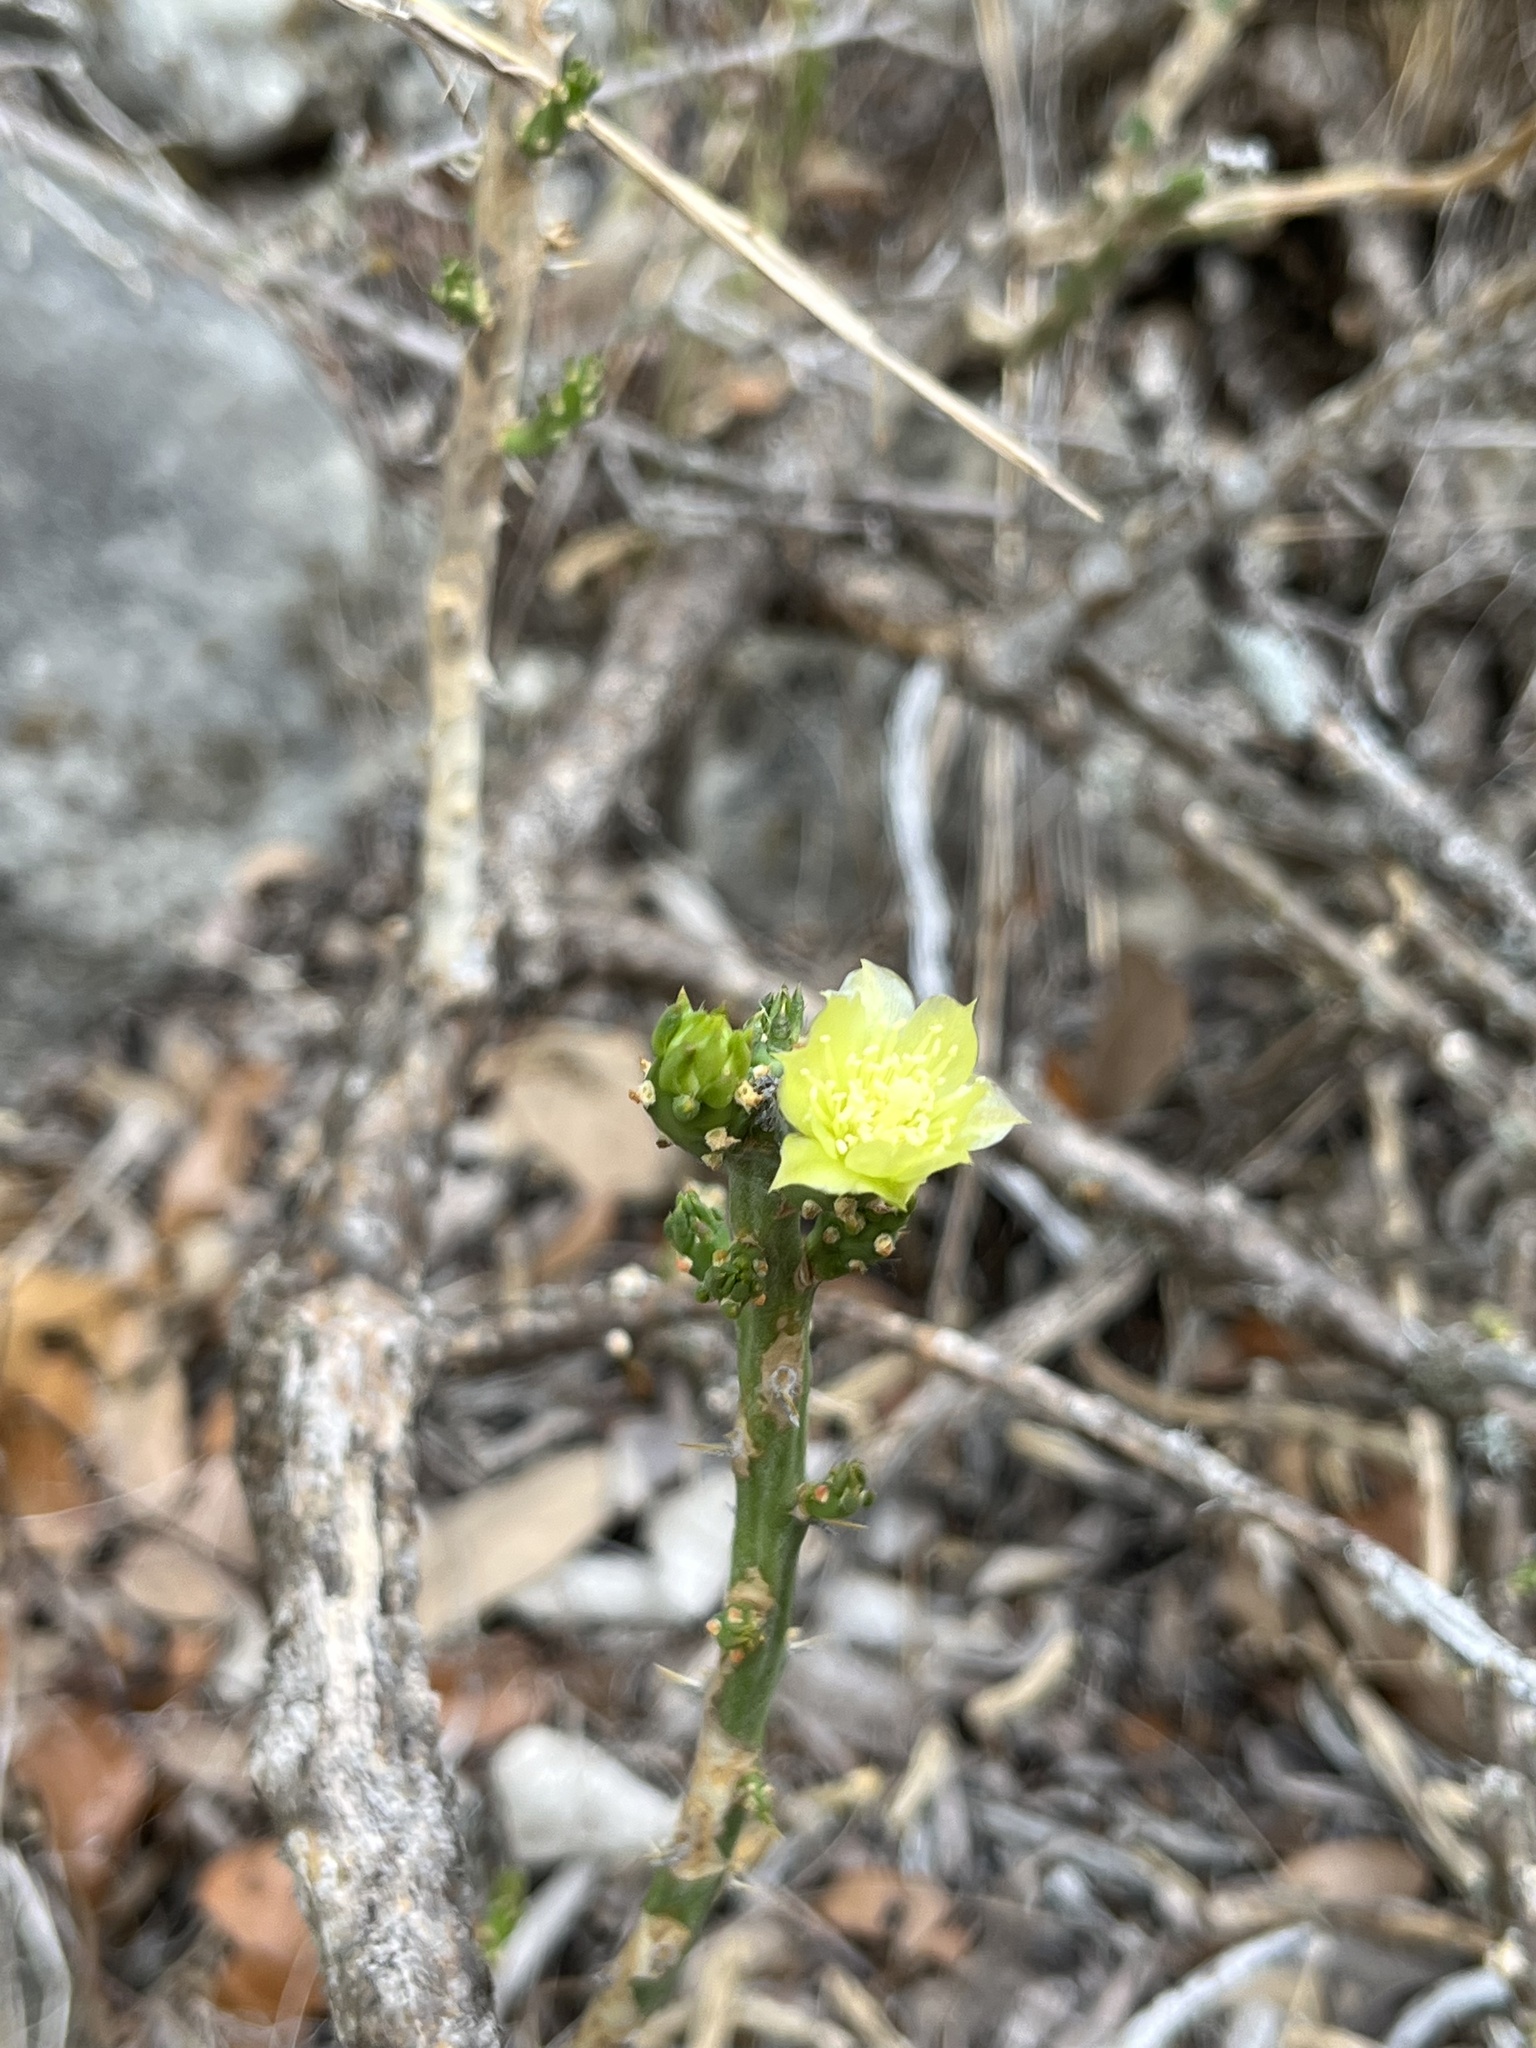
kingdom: Plantae
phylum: Tracheophyta
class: Magnoliopsida
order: Caryophyllales
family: Cactaceae
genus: Cylindropuntia
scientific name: Cylindropuntia leptocaulis
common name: Christmas cactus
